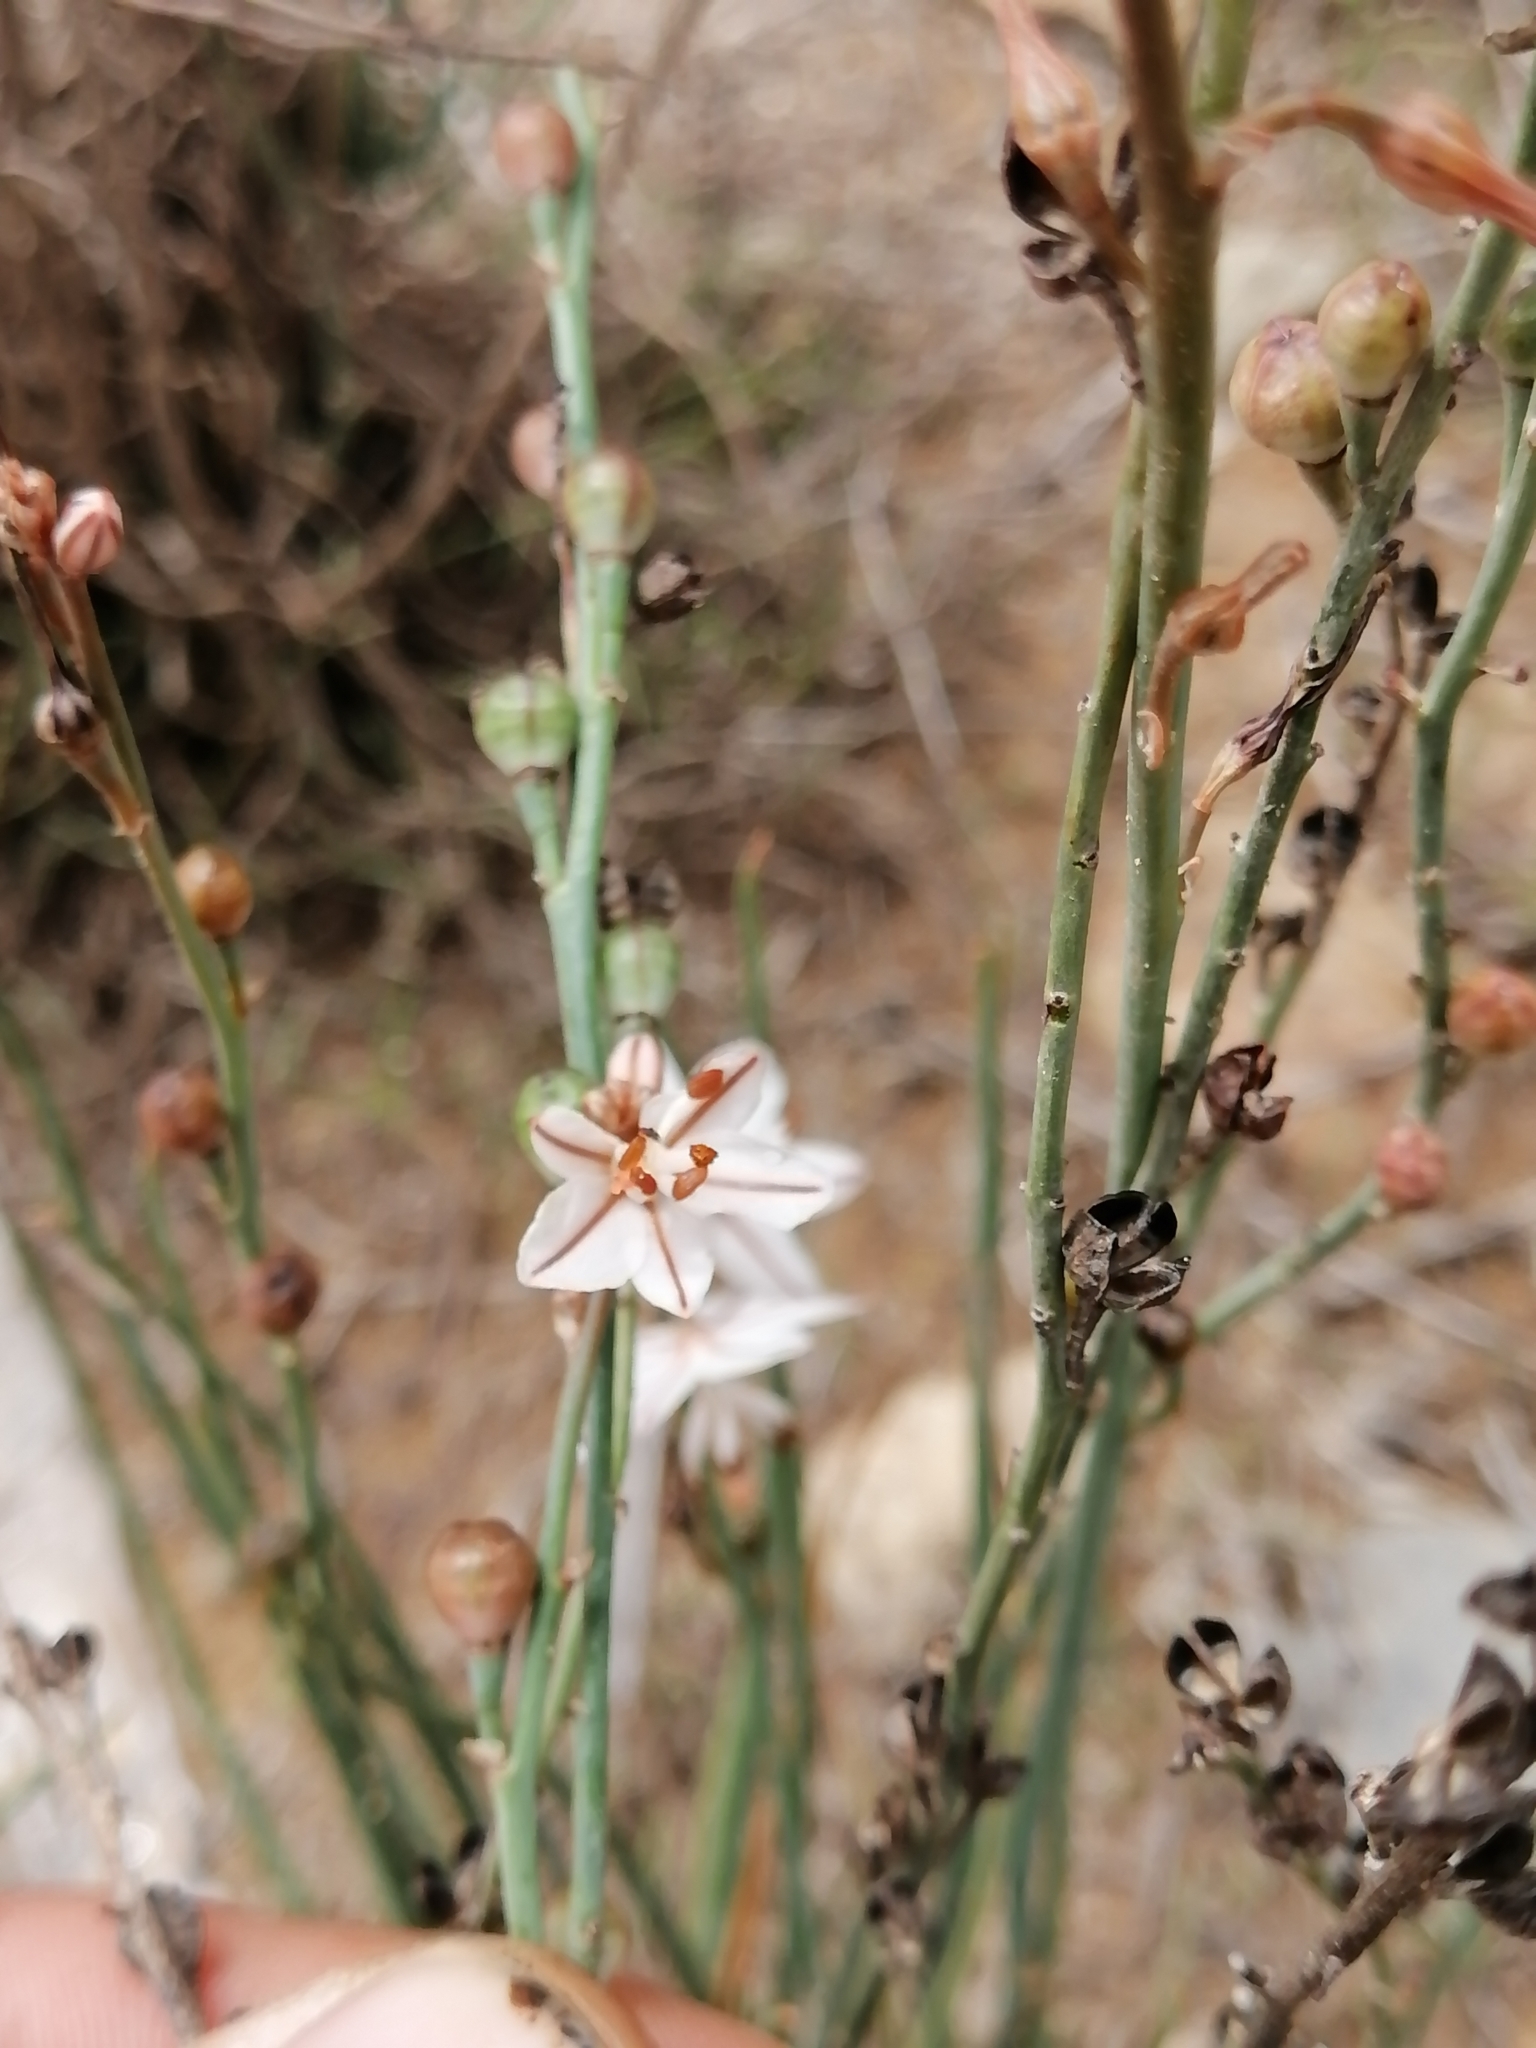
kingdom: Plantae
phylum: Tracheophyta
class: Liliopsida
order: Asparagales
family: Asphodelaceae
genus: Asphodelus
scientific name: Asphodelus fistulosus
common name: Onionweed
